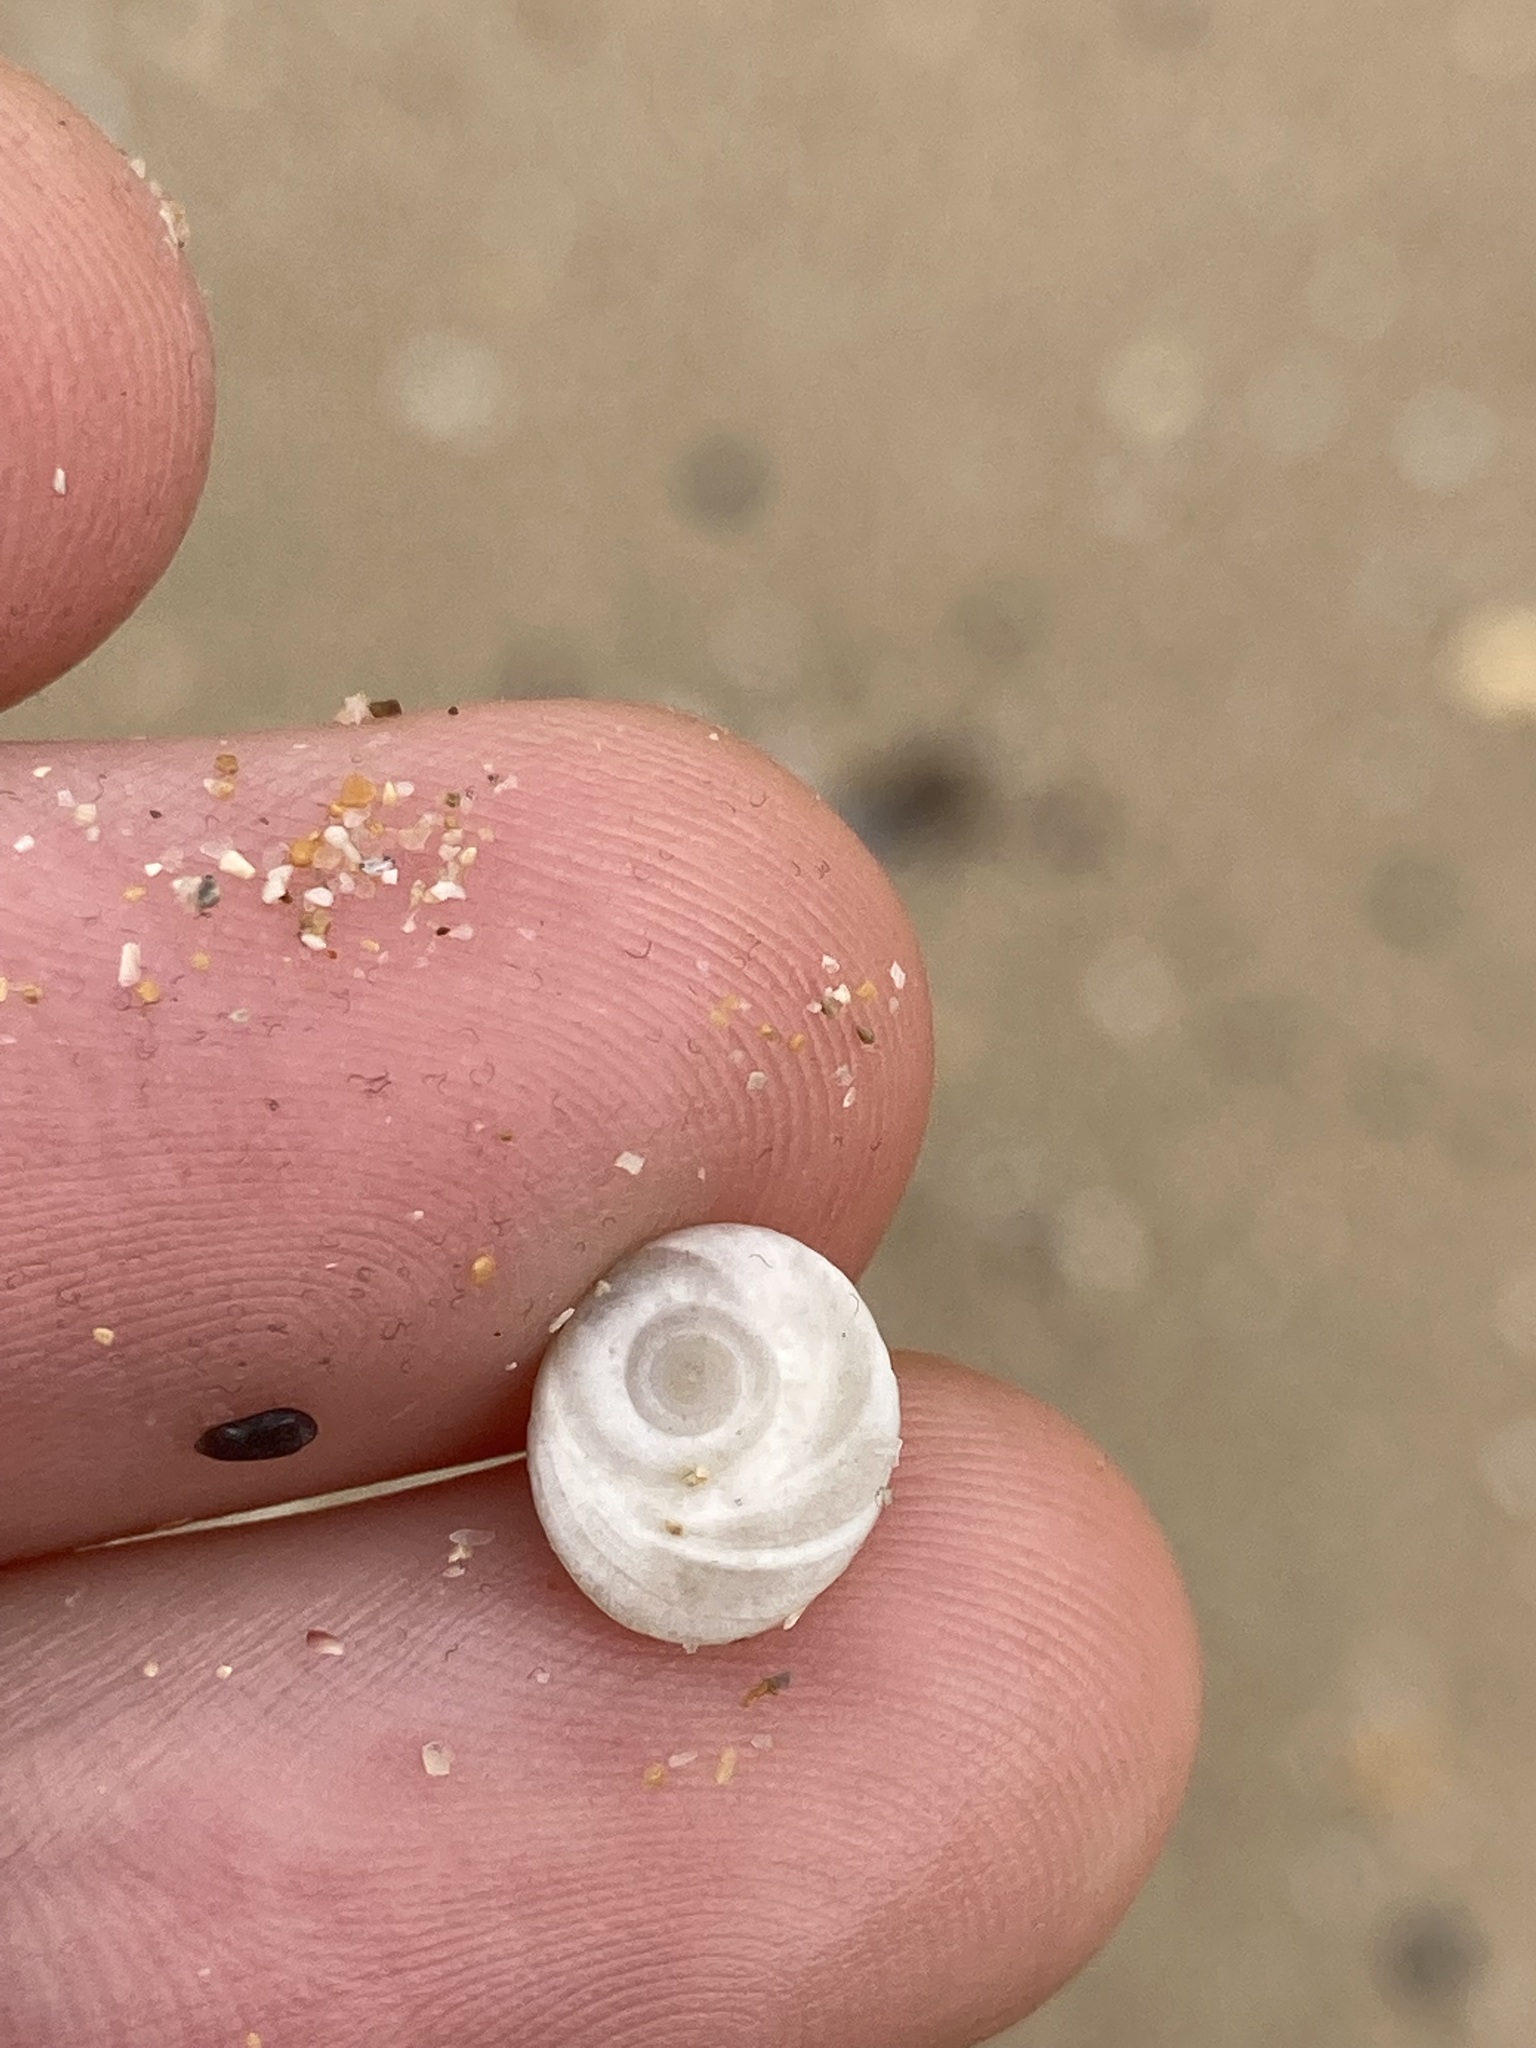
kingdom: Animalia
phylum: Mollusca
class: Gastropoda
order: Trochida
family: Turbinidae
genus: Lunella
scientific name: Lunella undulata
